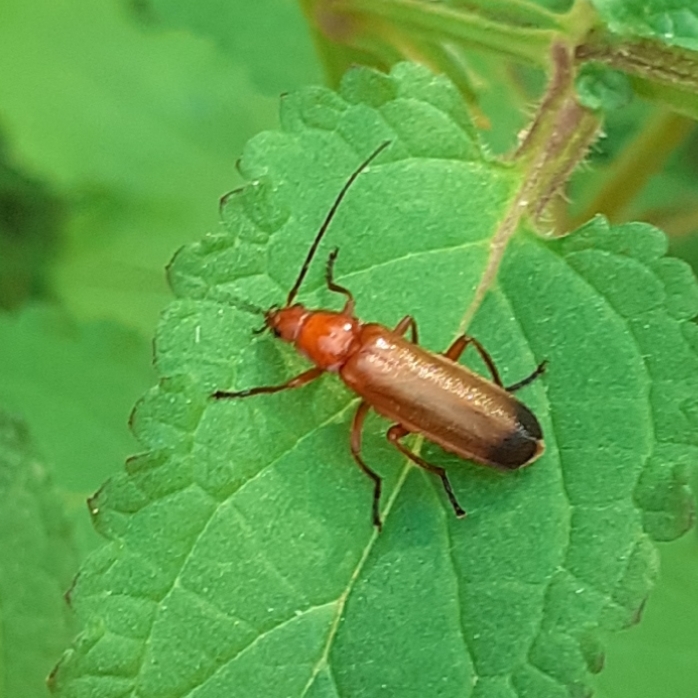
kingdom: Animalia
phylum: Arthropoda
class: Insecta
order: Coleoptera
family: Cantharidae
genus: Rhagonycha
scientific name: Rhagonycha fulva
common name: Common red soldier beetle
